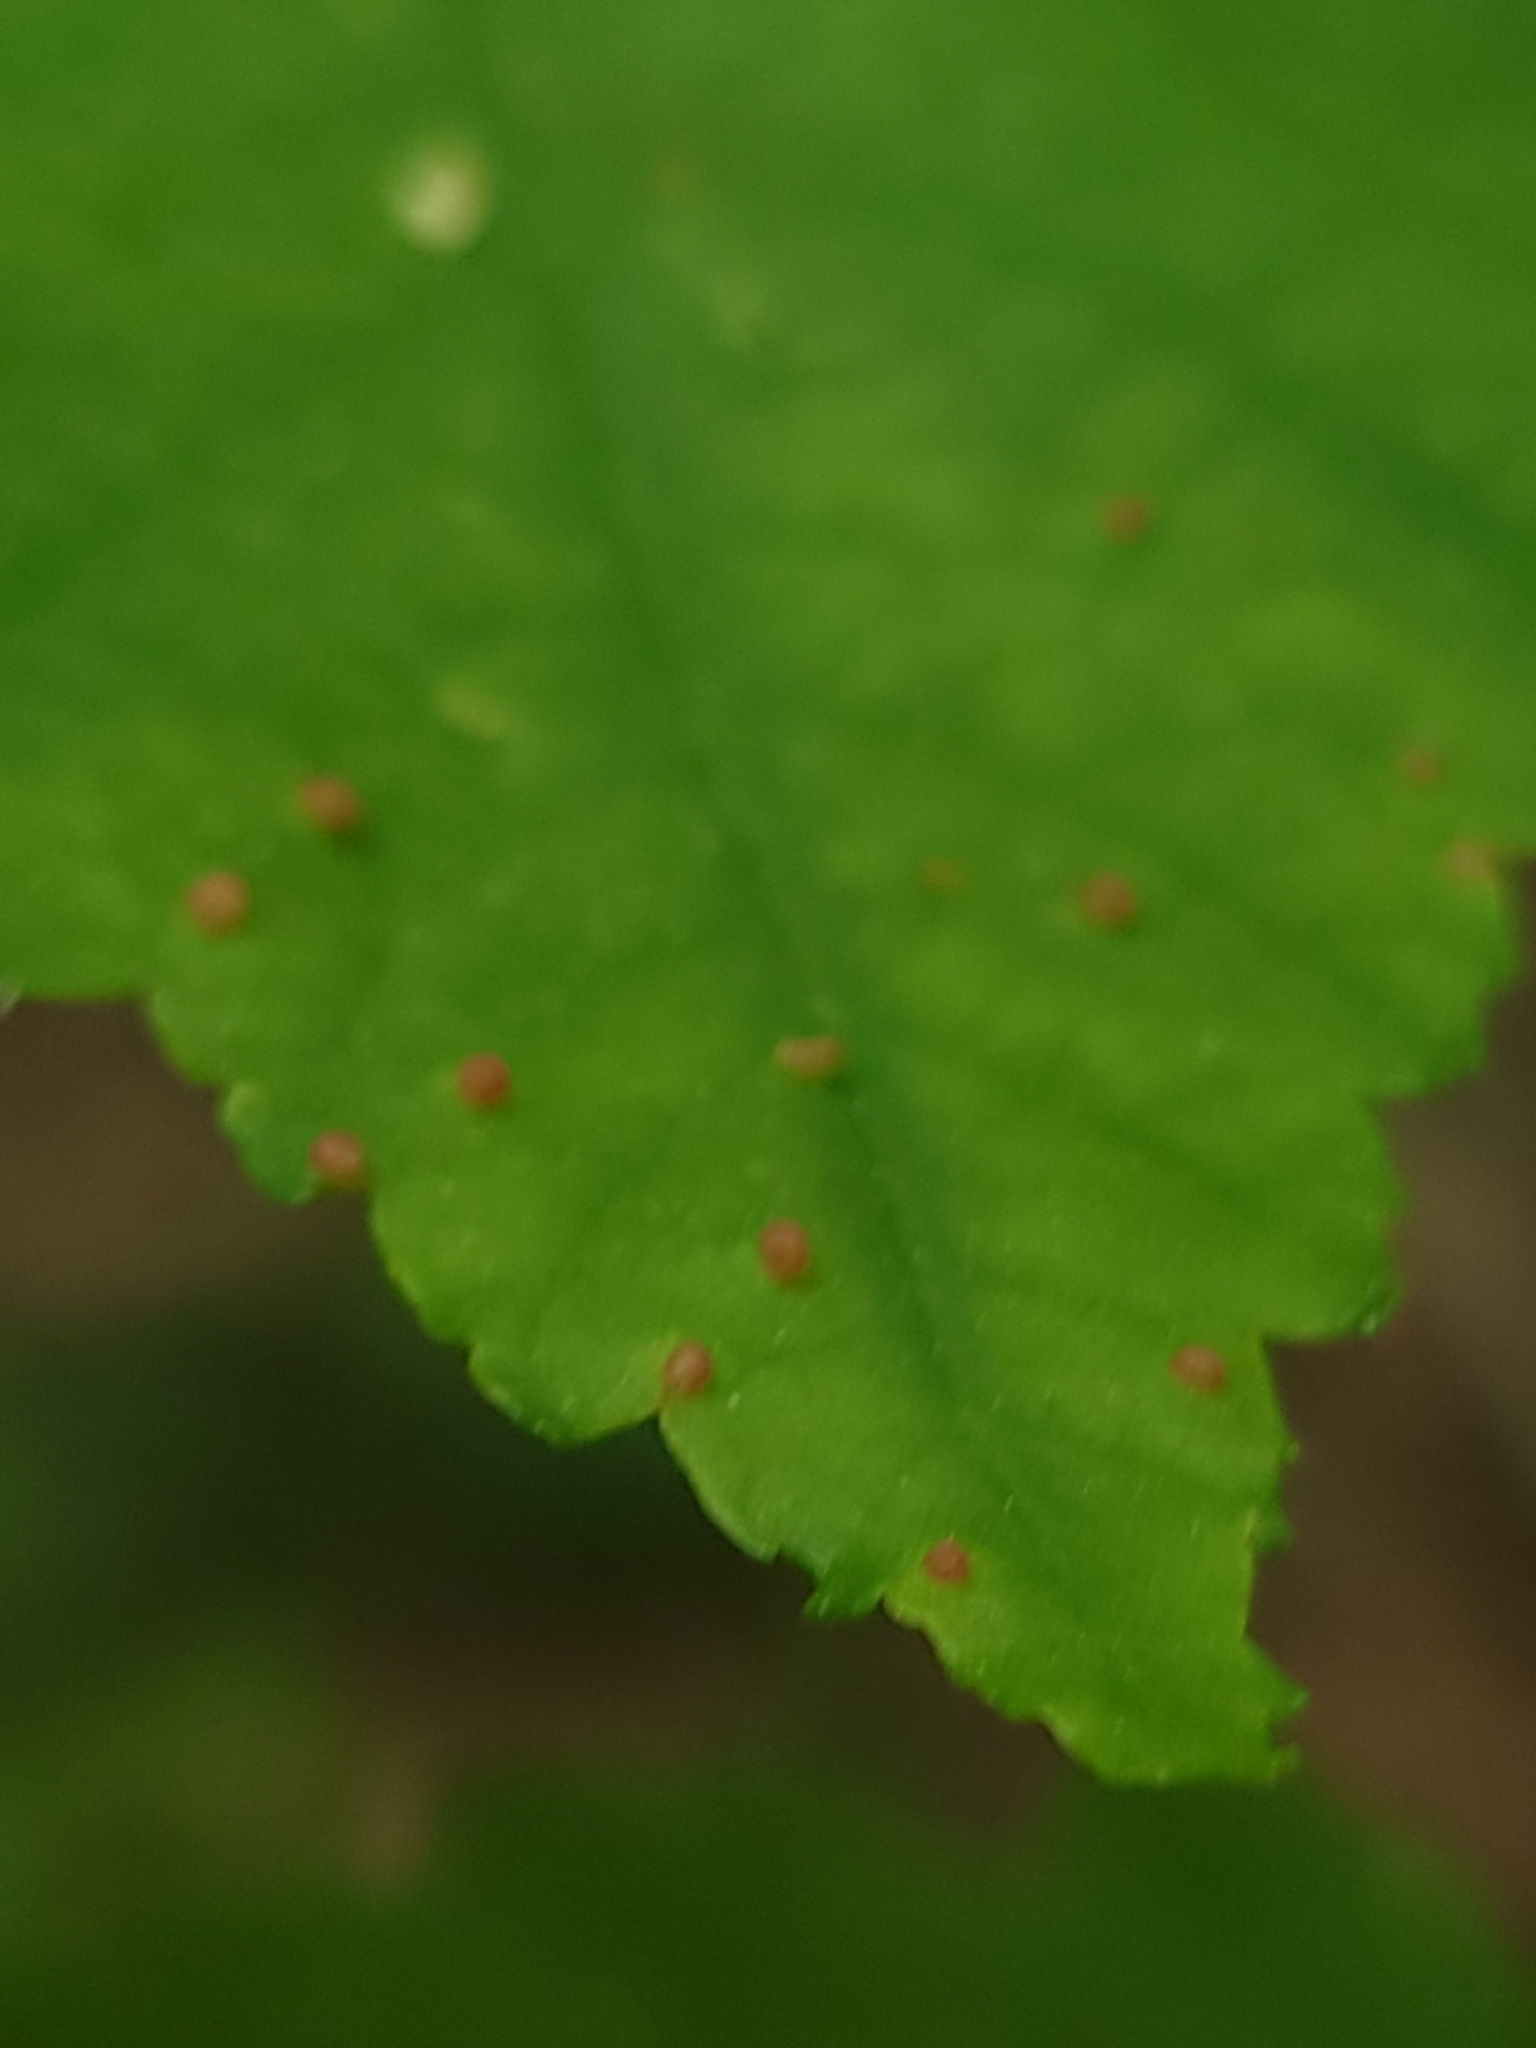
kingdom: Animalia
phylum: Arthropoda
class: Arachnida
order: Trombidiformes
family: Eriophyidae
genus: Vasates
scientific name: Vasates quadripedes
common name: Maple bladder gall mite
